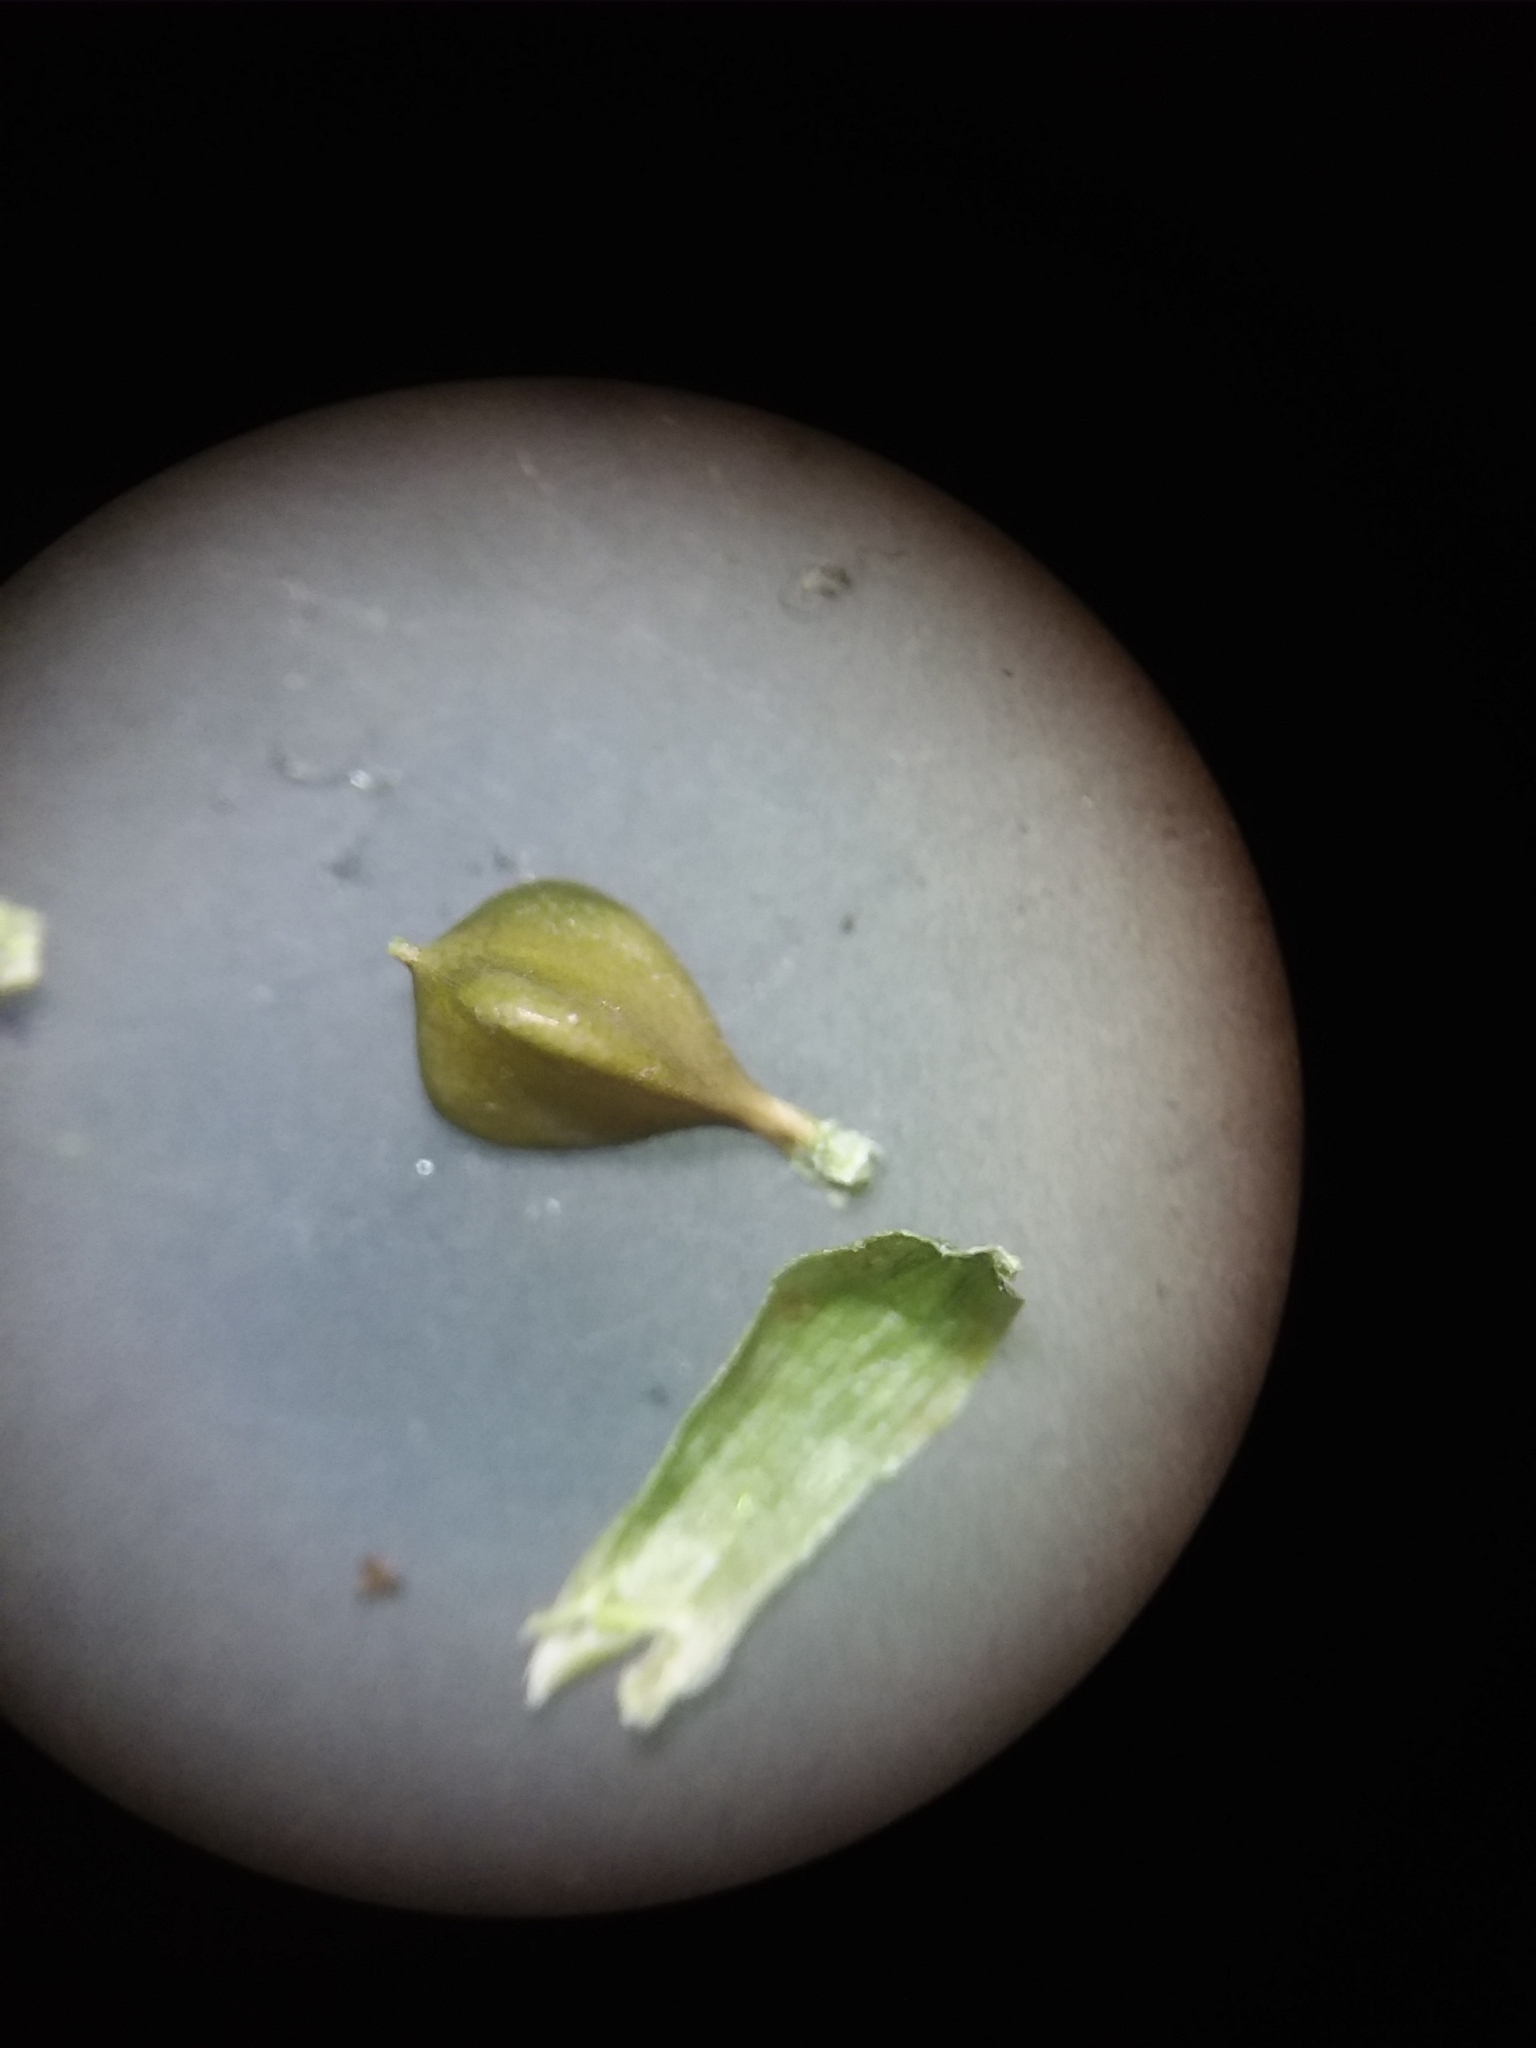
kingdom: Plantae
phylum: Tracheophyta
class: Liliopsida
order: Poales
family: Cyperaceae
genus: Carex
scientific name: Carex corrugata
